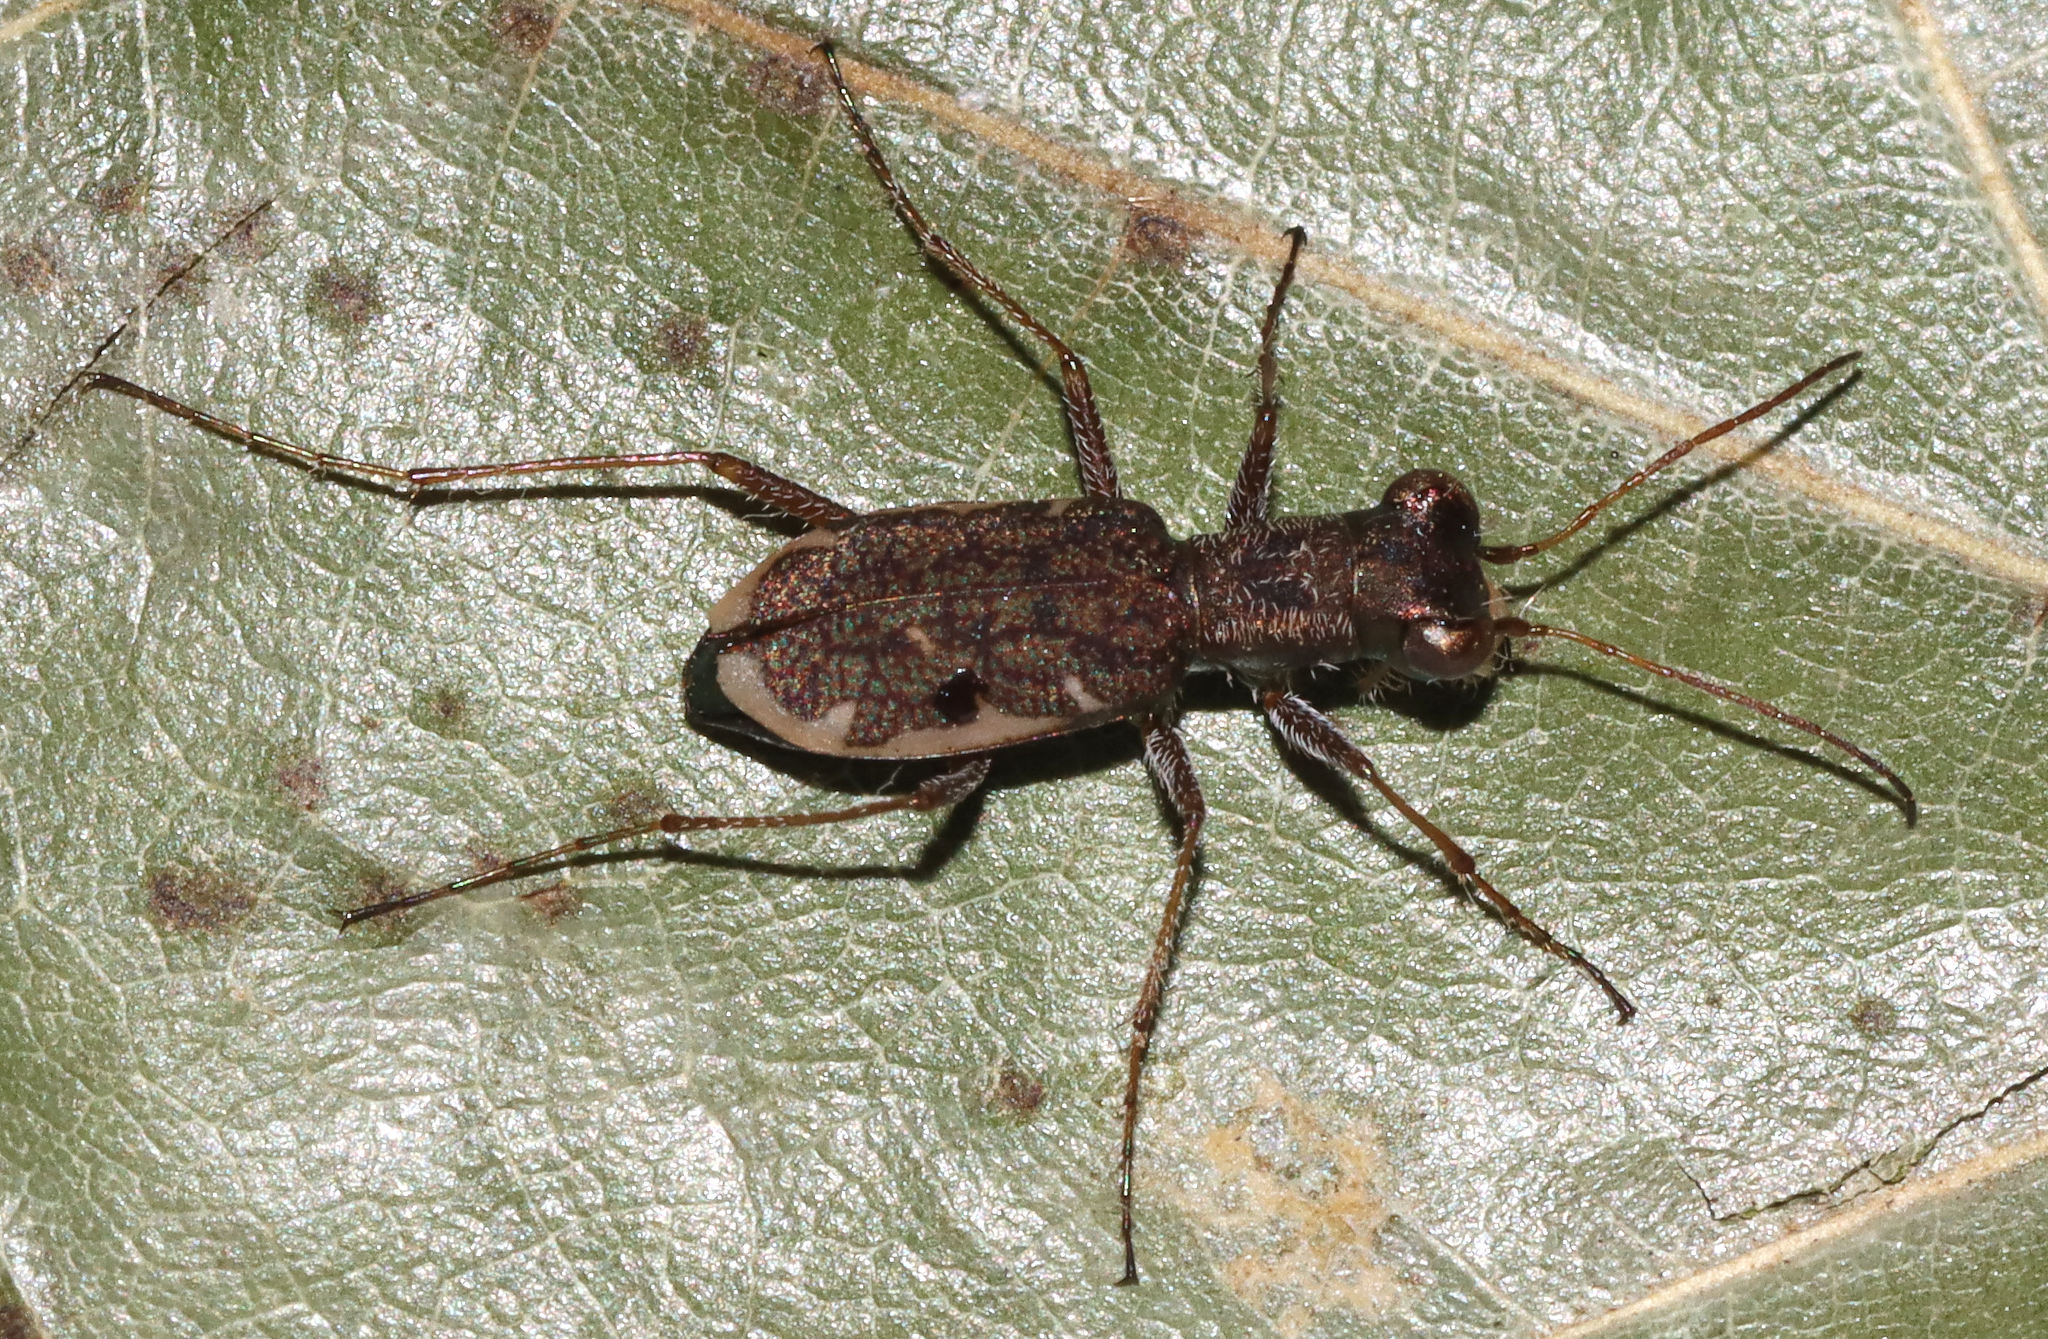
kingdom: Animalia
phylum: Arthropoda
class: Insecta
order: Coleoptera
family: Carabidae
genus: Cylindera
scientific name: Cylindera cursitans
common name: Ant-like tiger beetle
